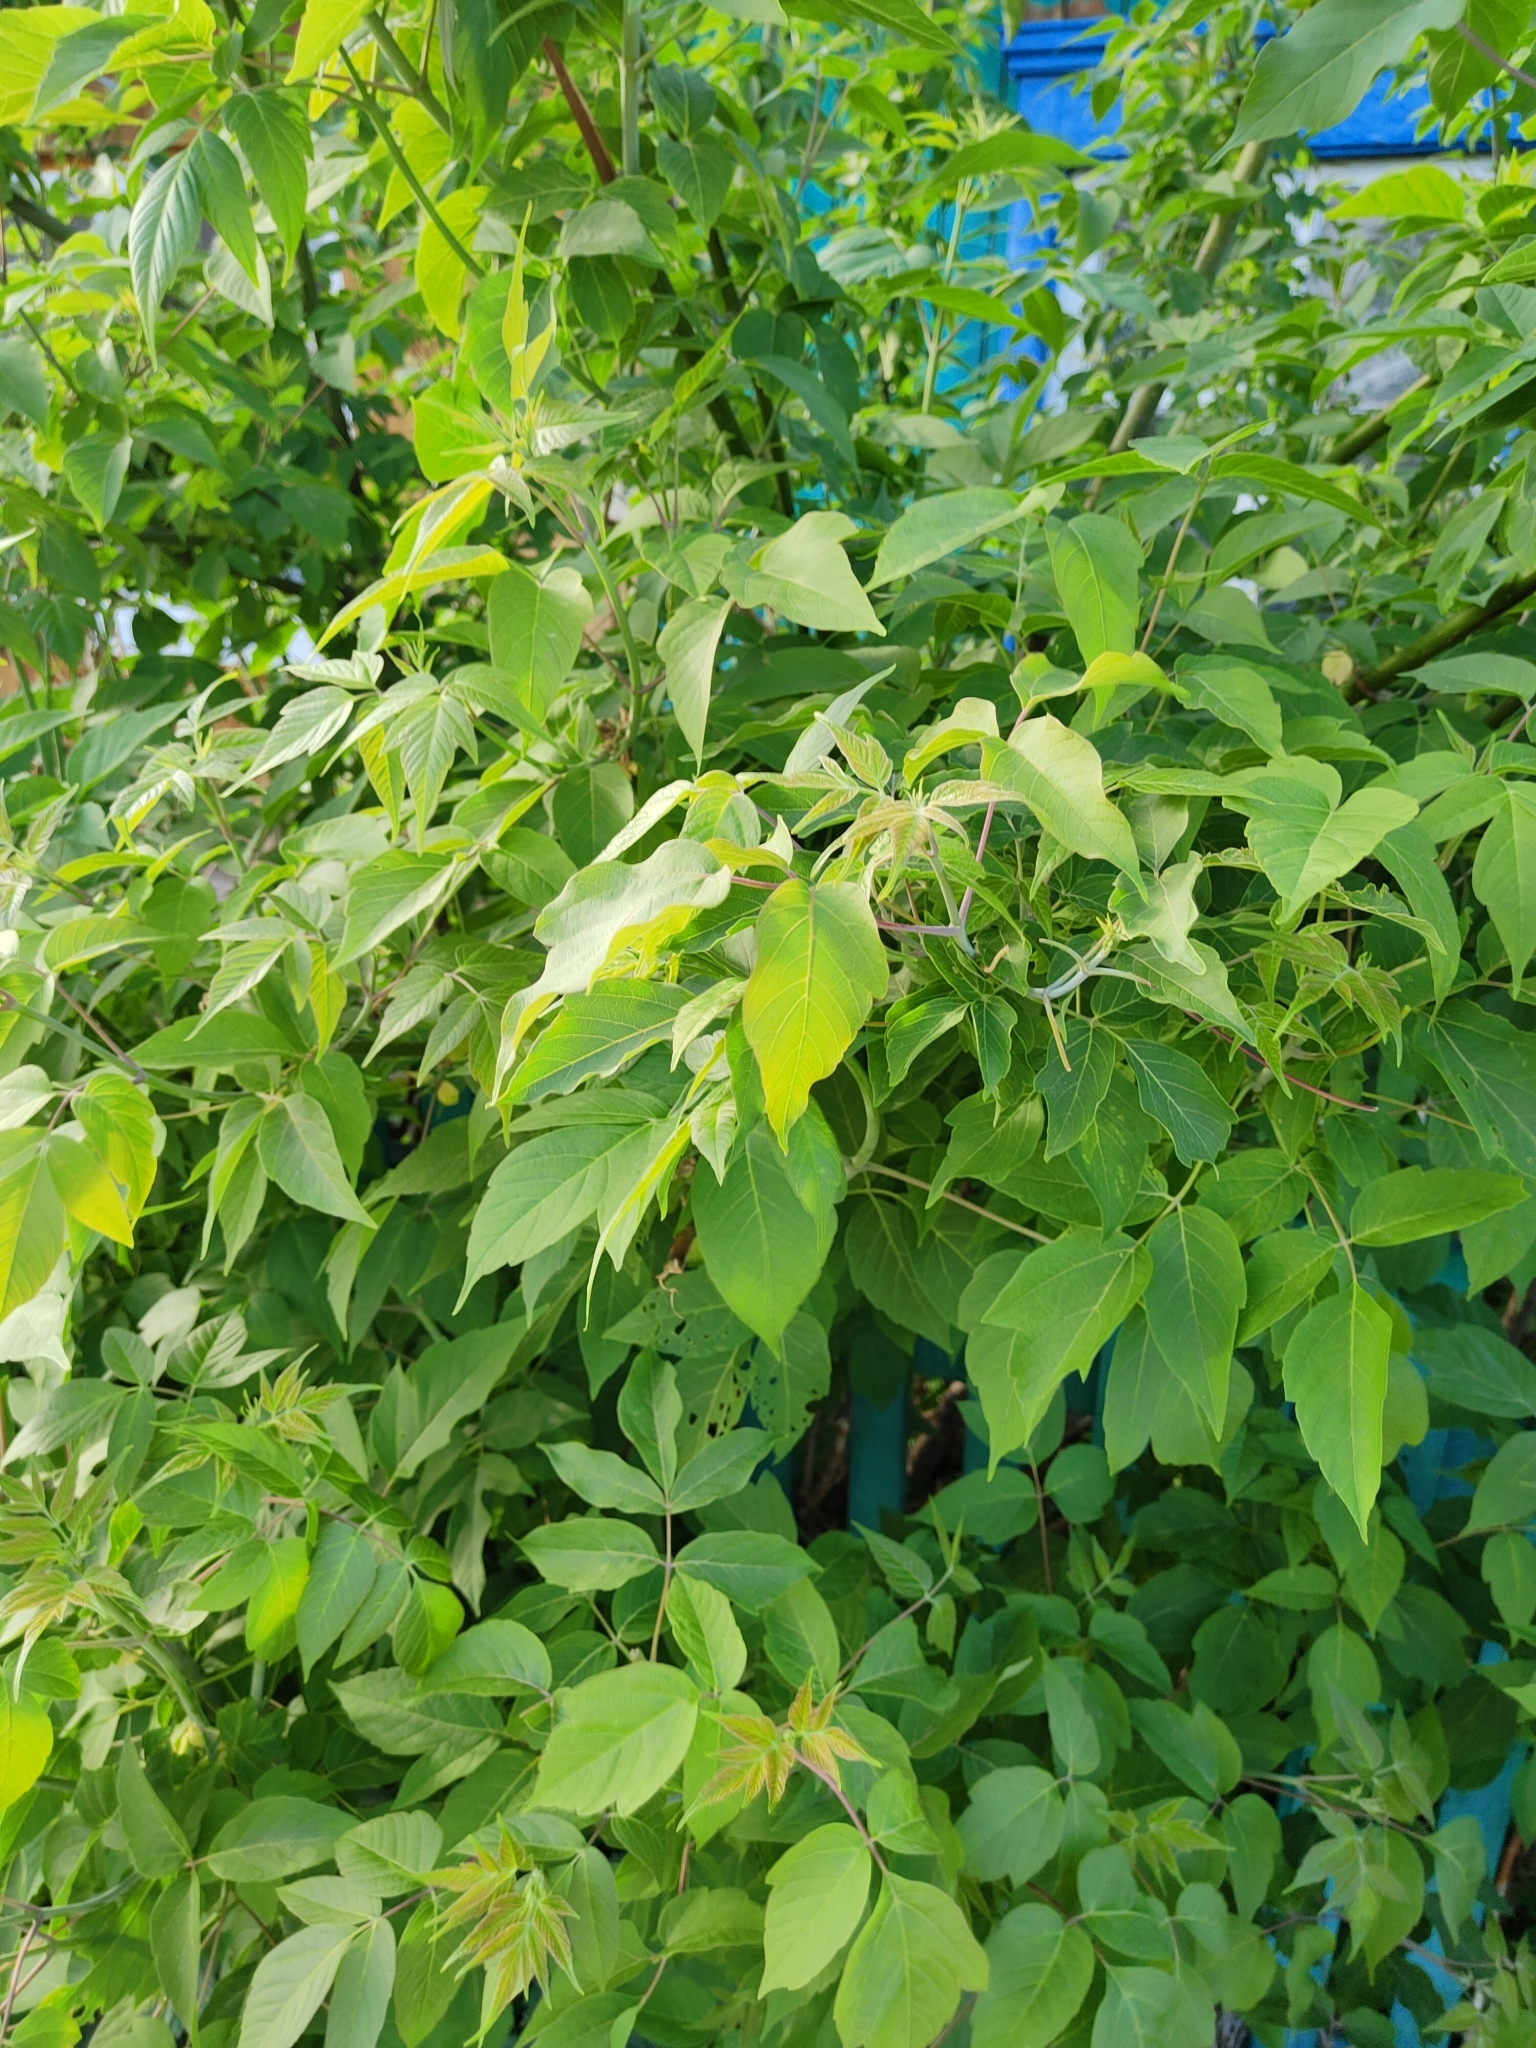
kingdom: Plantae
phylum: Tracheophyta
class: Magnoliopsida
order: Sapindales
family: Sapindaceae
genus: Acer
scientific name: Acer negundo
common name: Ashleaf maple
